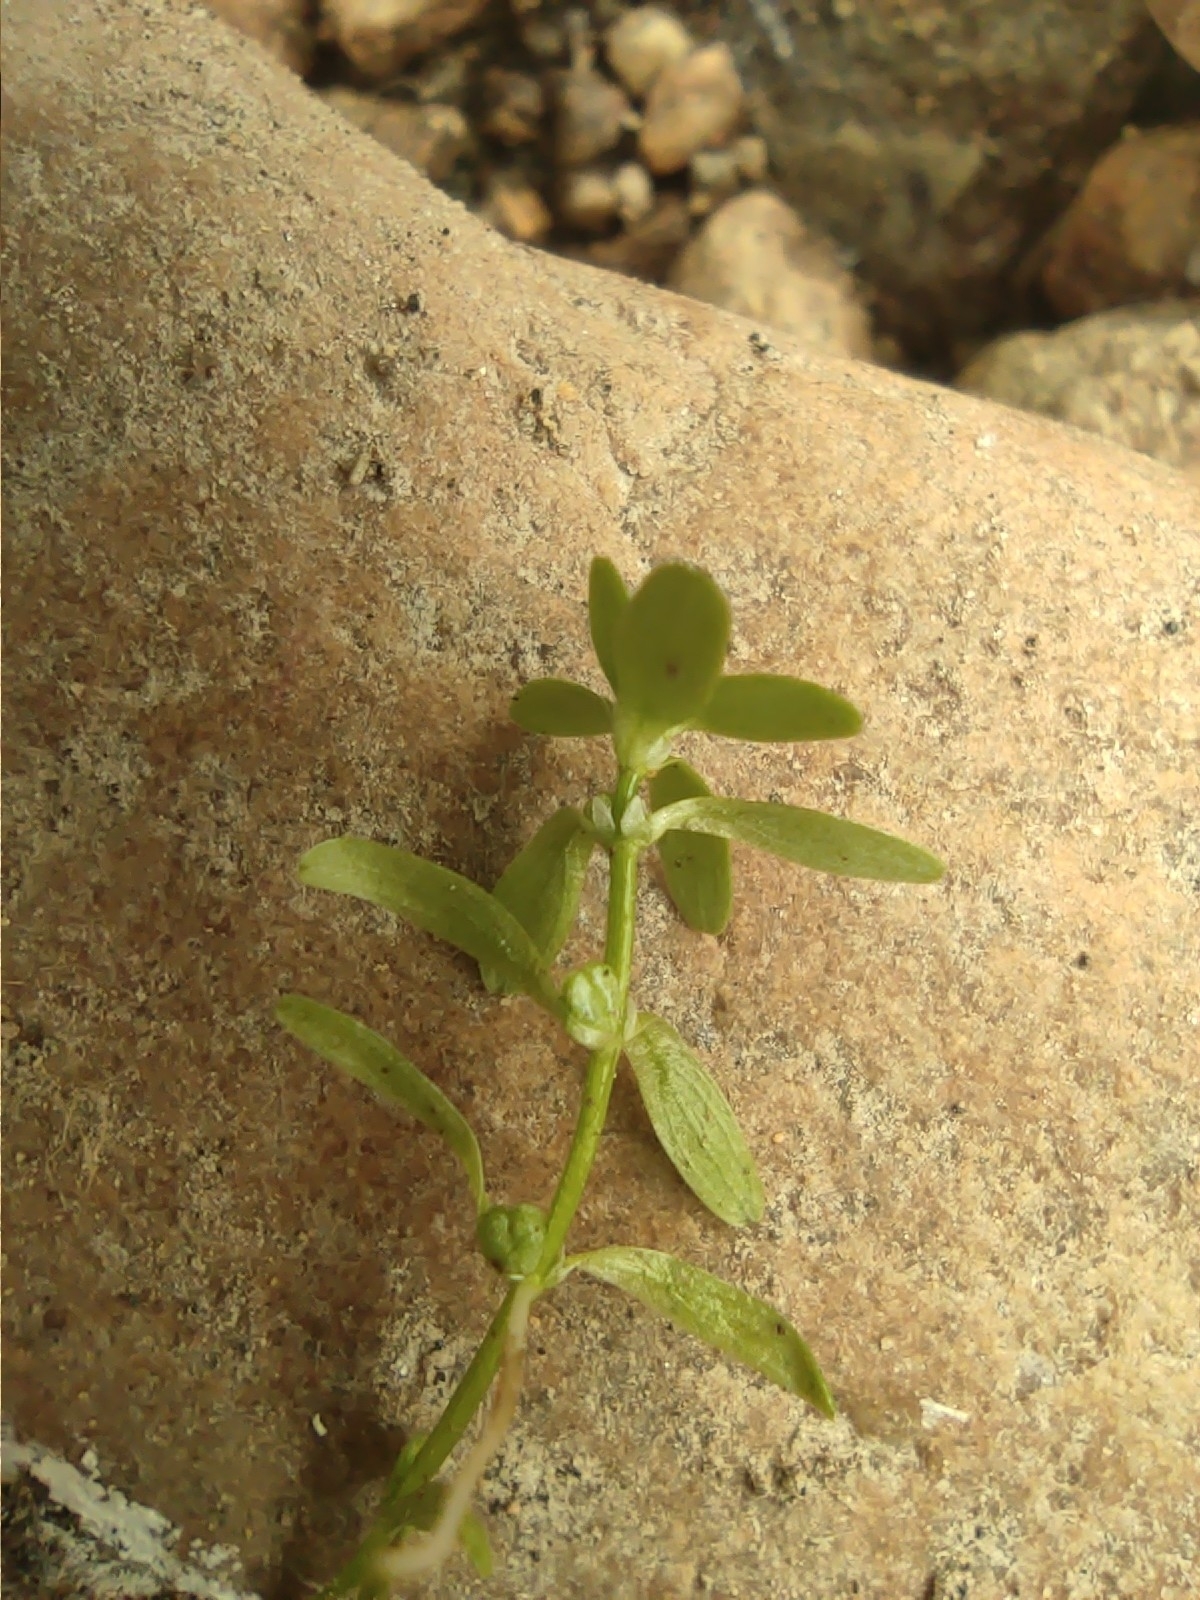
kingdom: Plantae
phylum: Tracheophyta
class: Magnoliopsida
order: Lamiales
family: Plantaginaceae
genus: Callitriche
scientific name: Callitriche palustris
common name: Spring water-starwort
